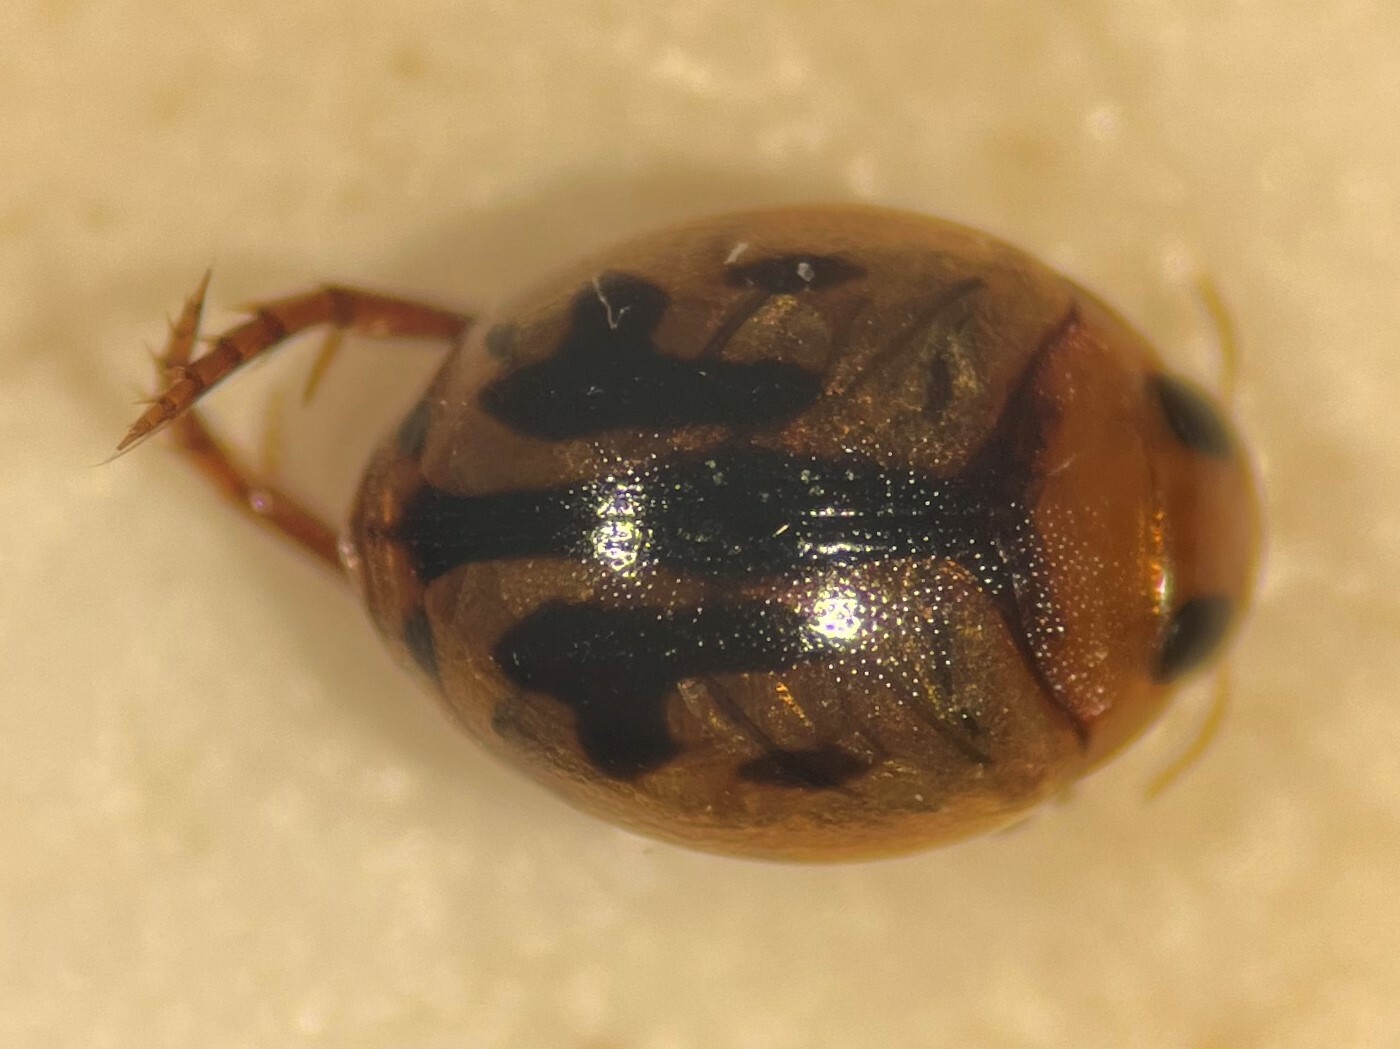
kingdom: Animalia
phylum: Arthropoda
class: Insecta
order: Coleoptera
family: Dytiscidae
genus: Desmopachria
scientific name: Desmopachria dispersa
